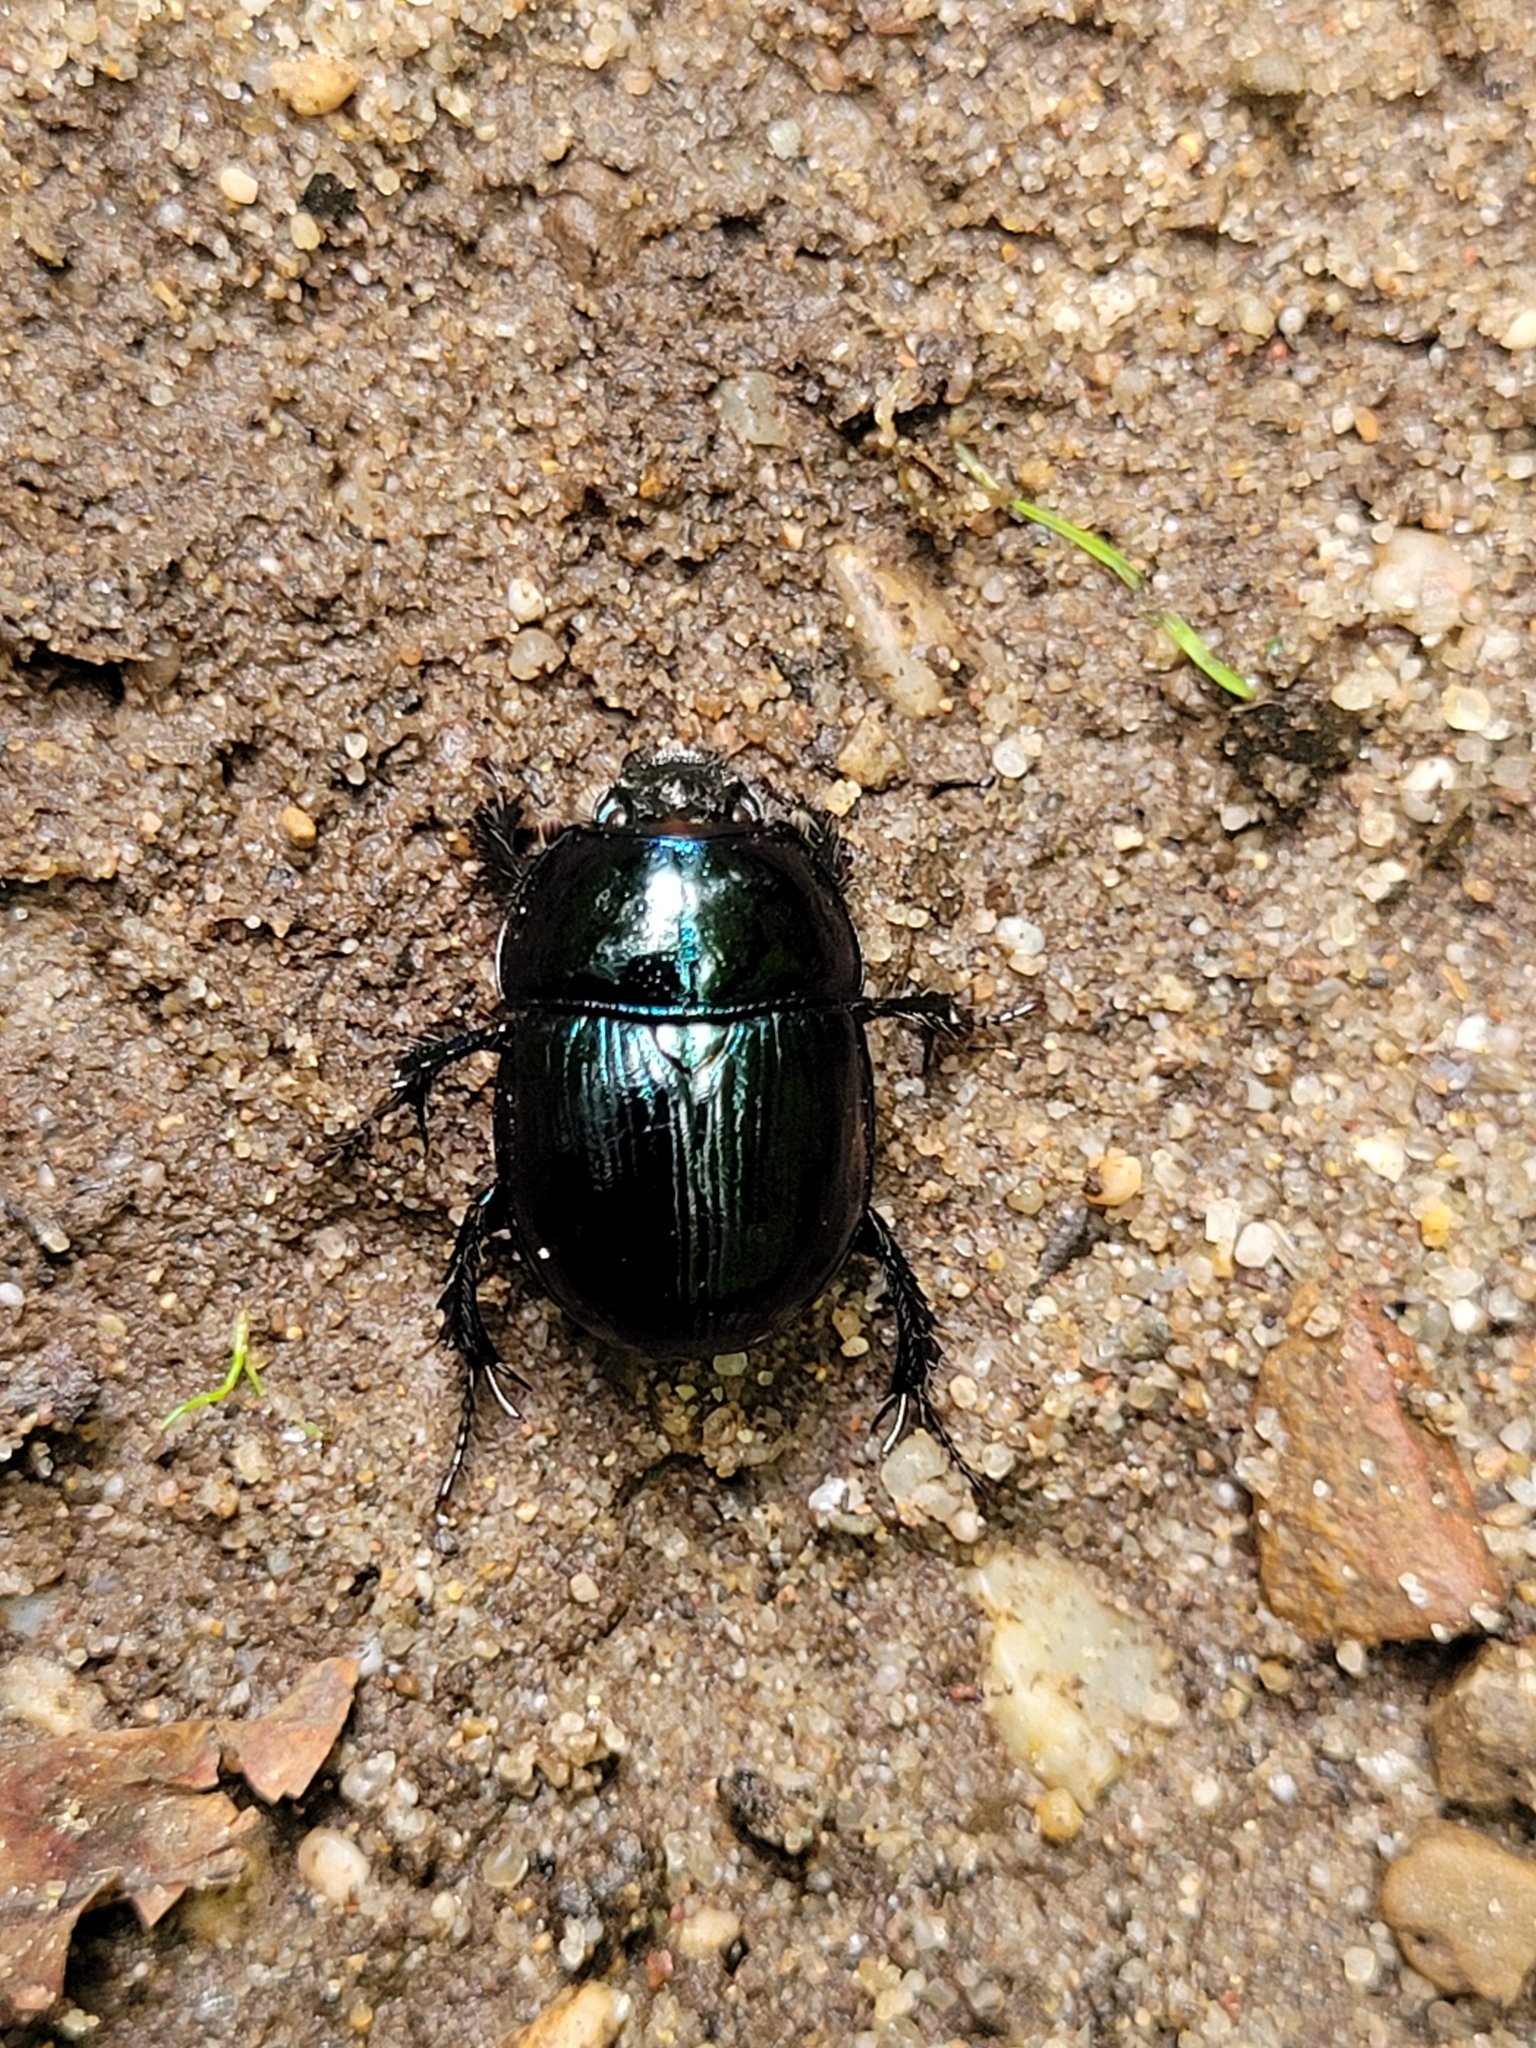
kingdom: Animalia
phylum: Arthropoda
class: Insecta
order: Coleoptera
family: Geotrupidae
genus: Anoplotrupes
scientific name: Anoplotrupes stercorosus
